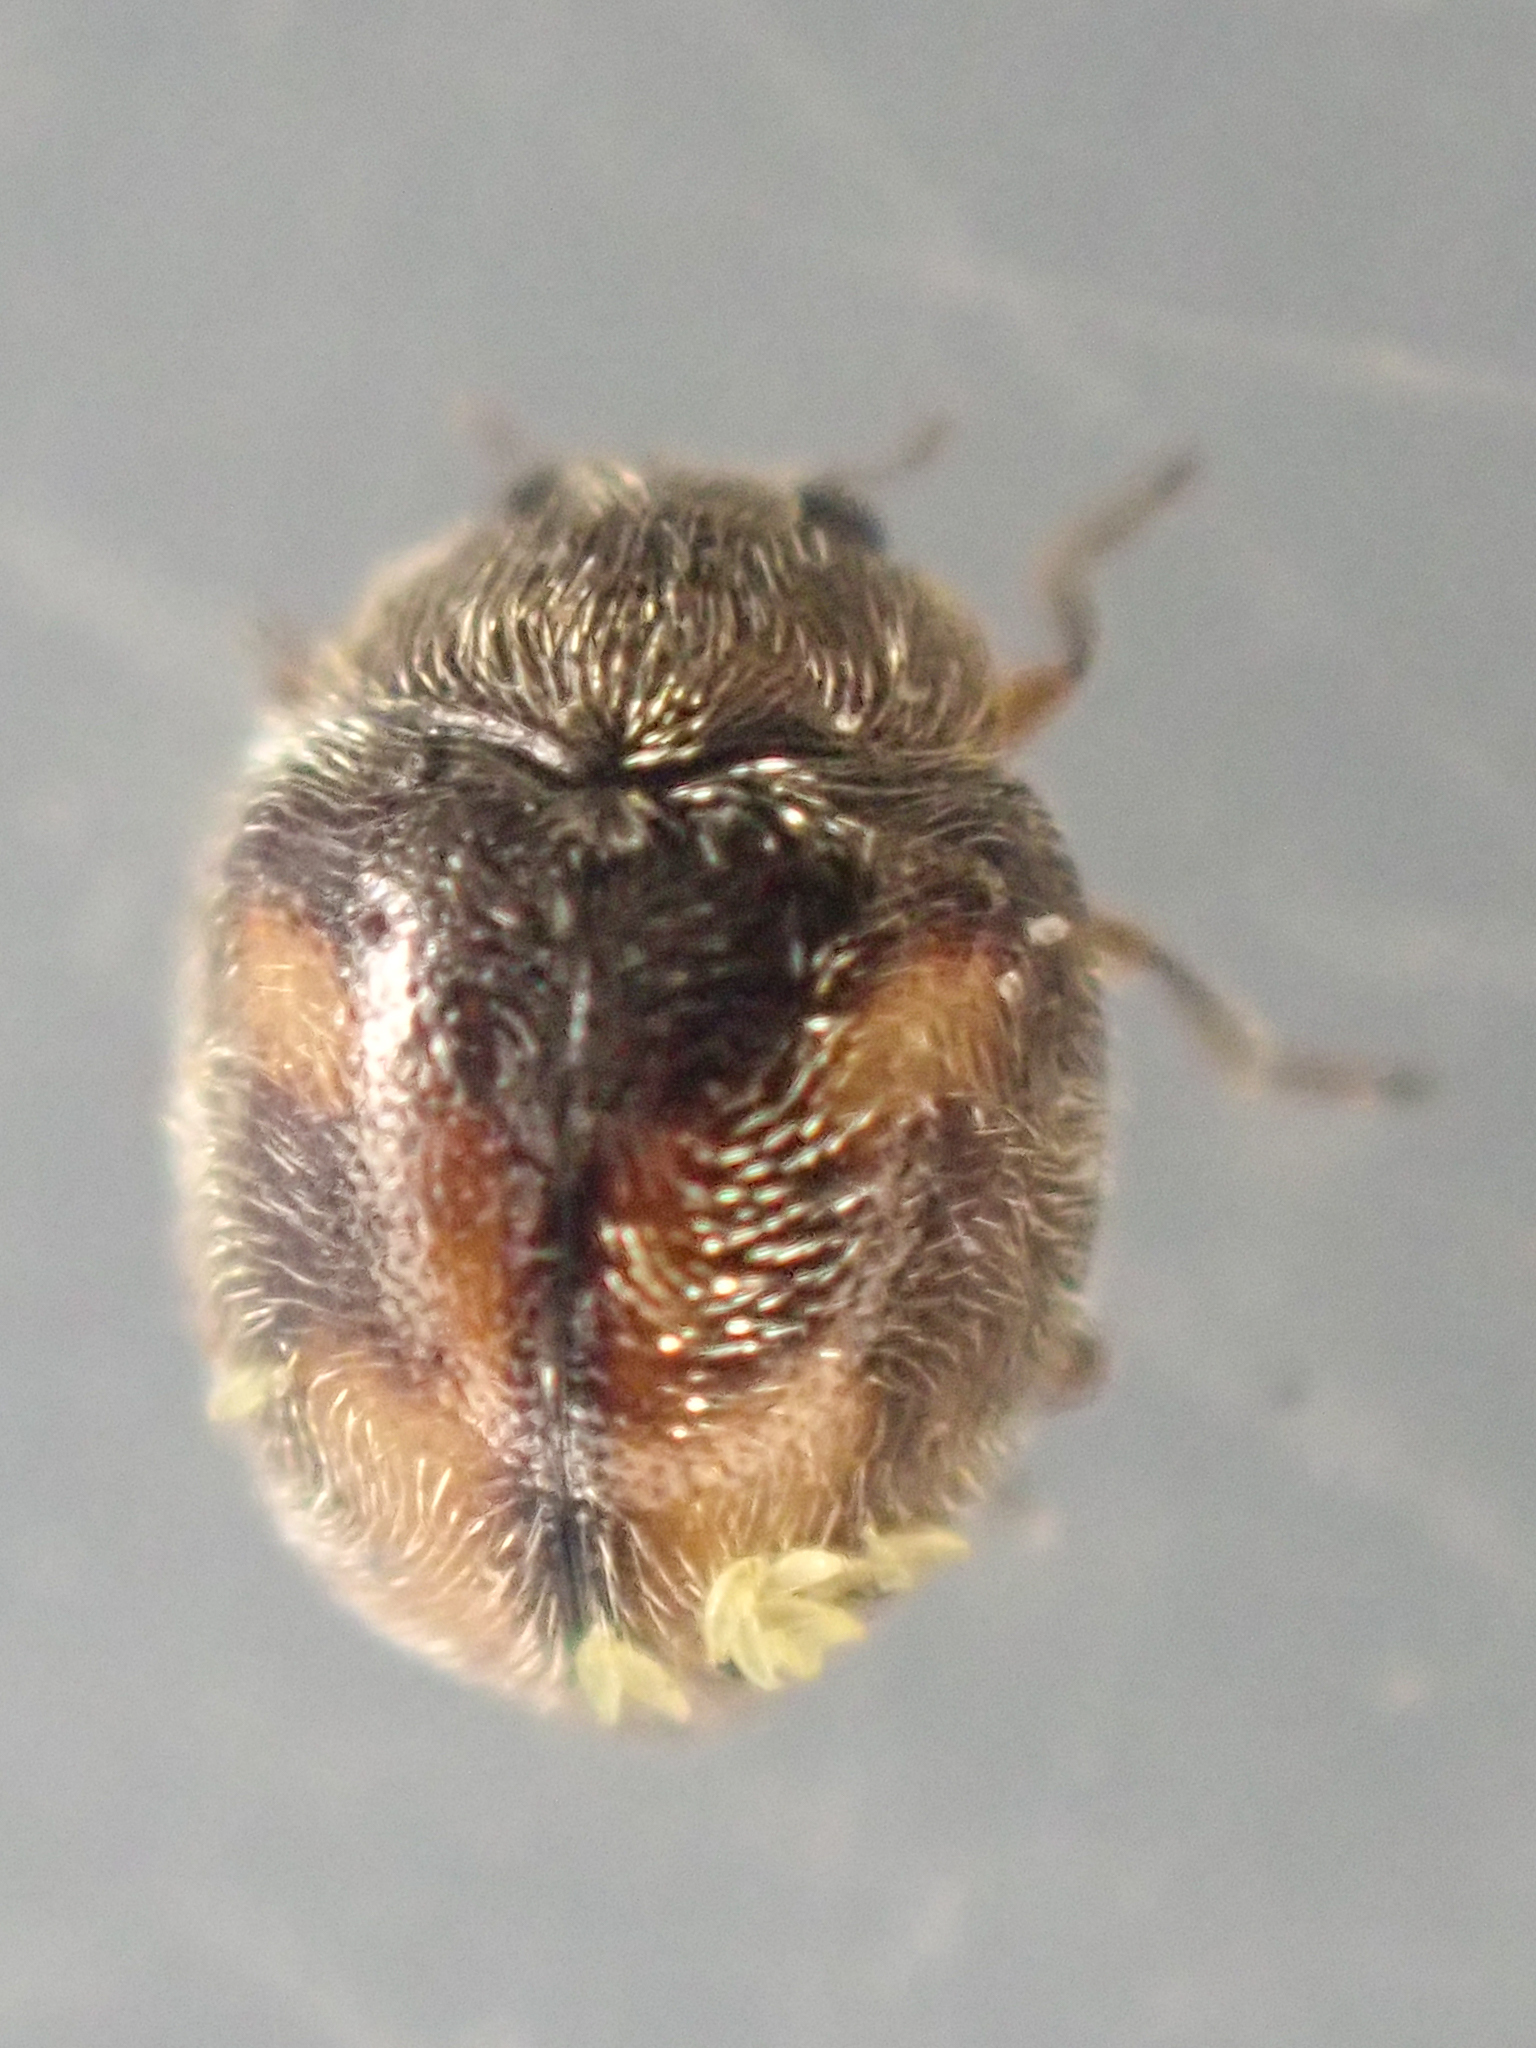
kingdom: Animalia
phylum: Arthropoda
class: Insecta
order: Coleoptera
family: Coccinellidae
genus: Zagloba
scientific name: Zagloba ornata
